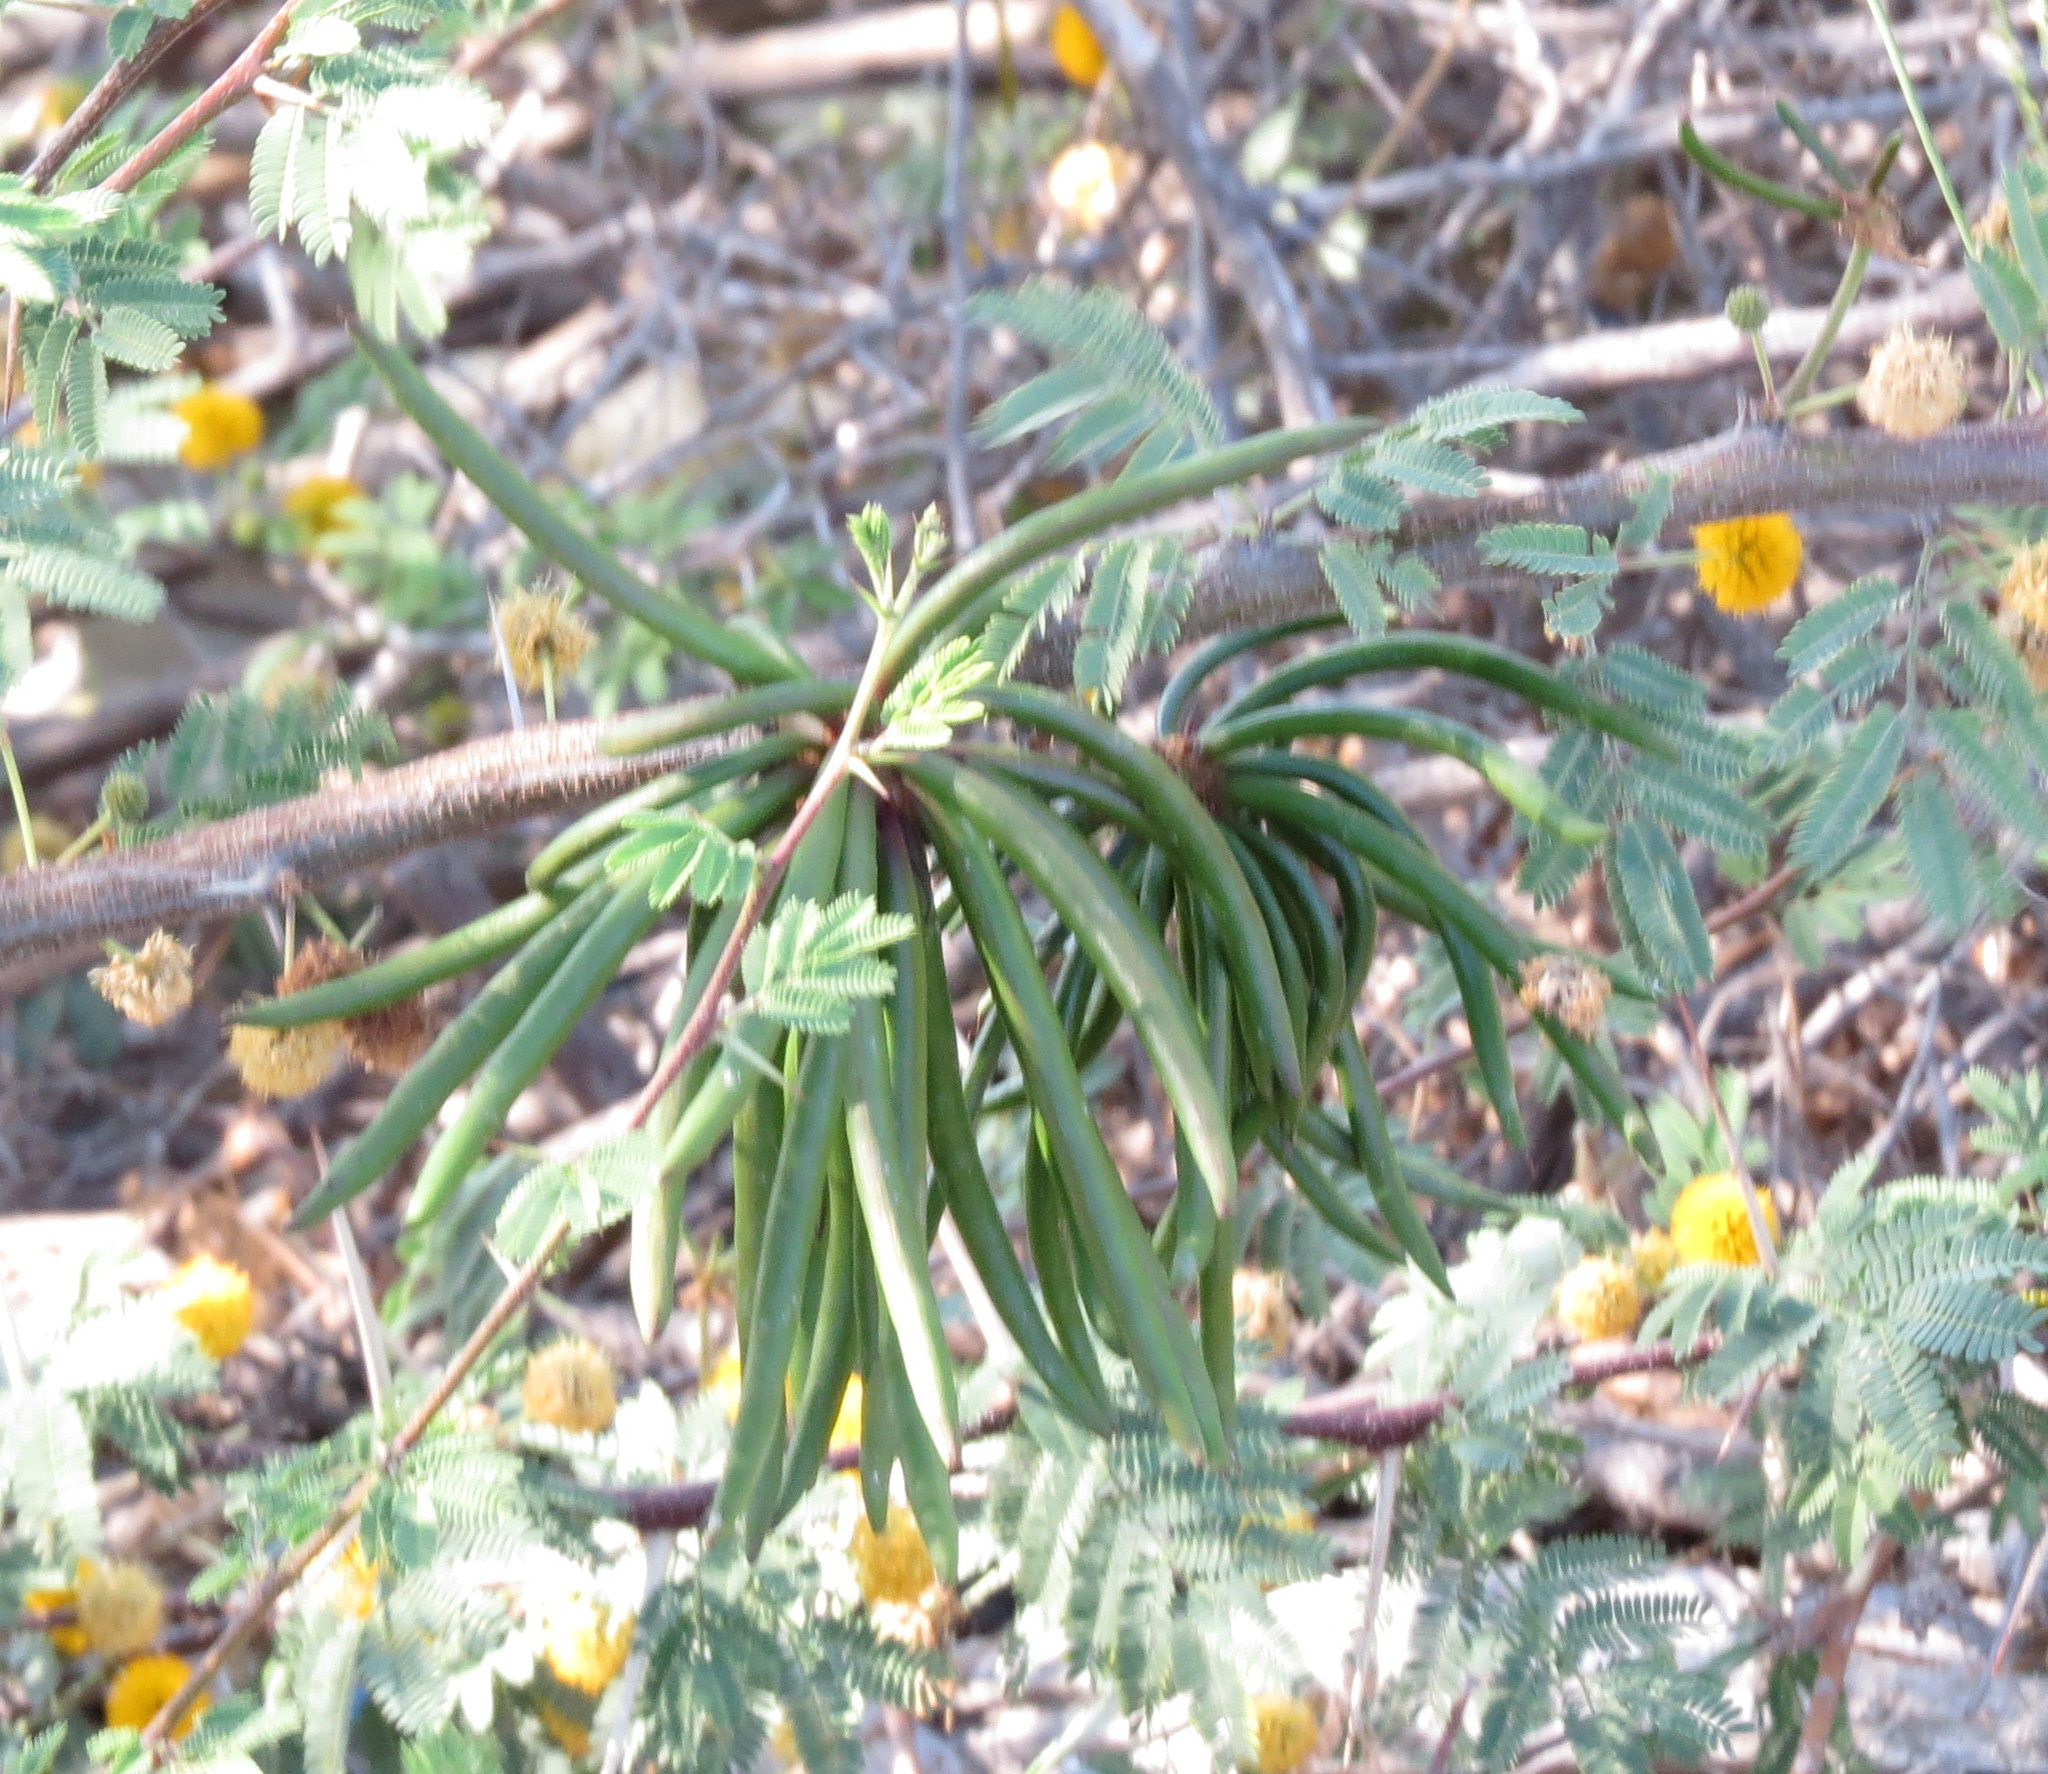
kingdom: Plantae
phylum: Tracheophyta
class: Magnoliopsida
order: Fabales
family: Fabaceae
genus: Vachellia
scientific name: Vachellia farnesiana
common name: Sweet acacia
